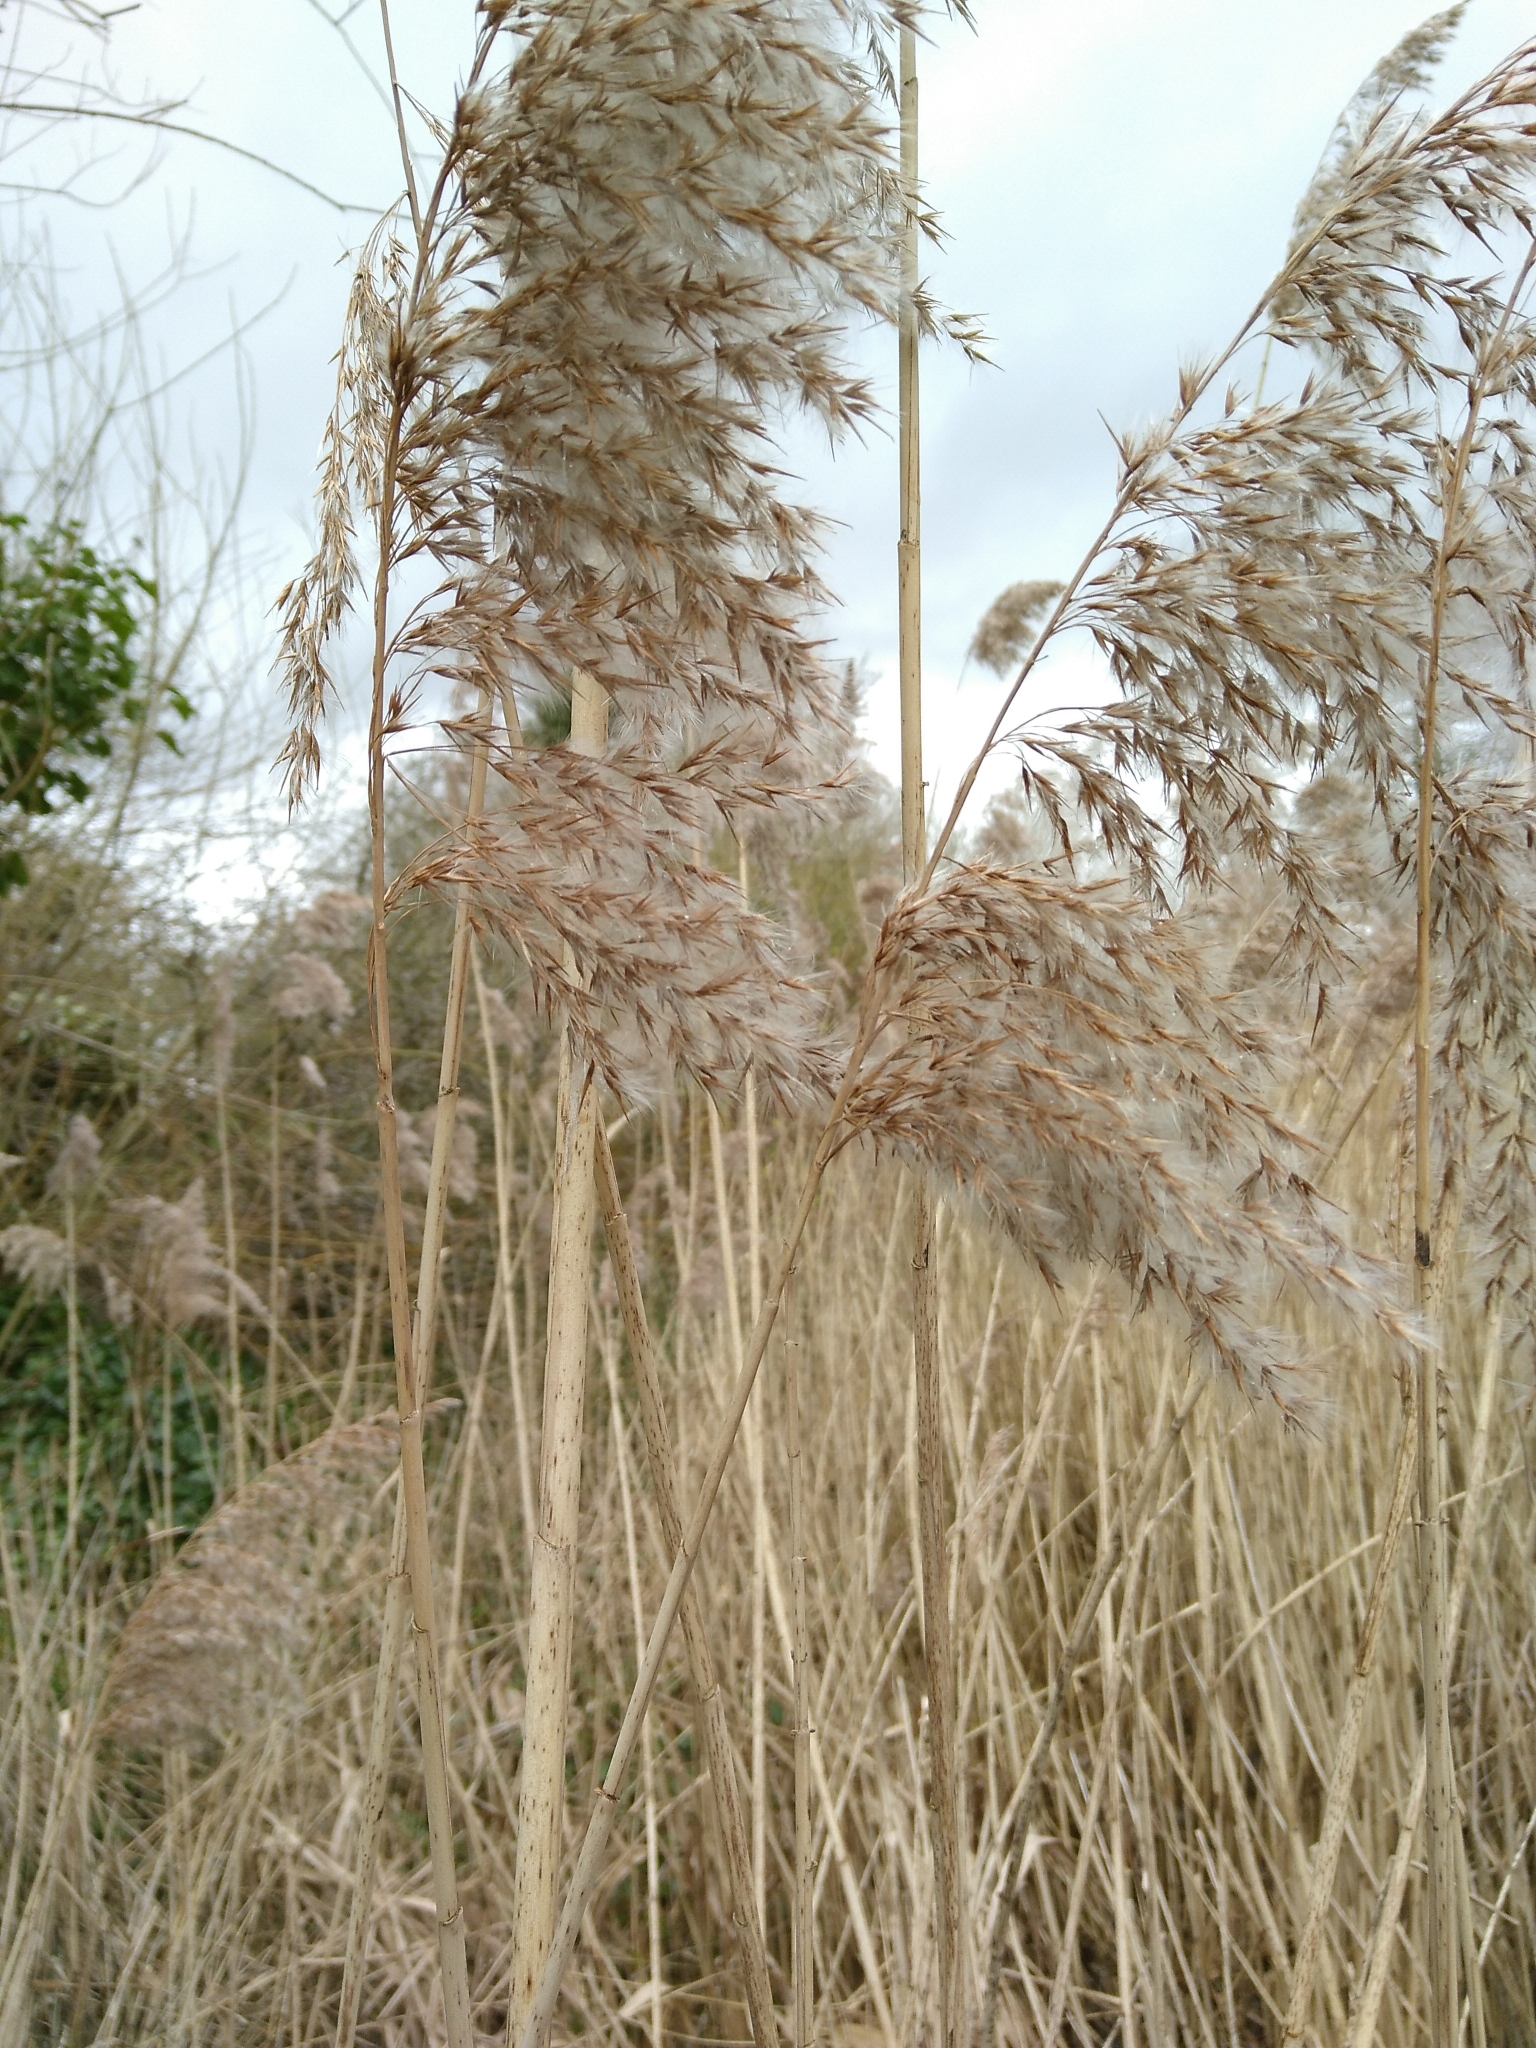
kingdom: Plantae
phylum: Tracheophyta
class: Liliopsida
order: Poales
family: Poaceae
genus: Phragmites
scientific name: Phragmites australis
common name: Common reed
